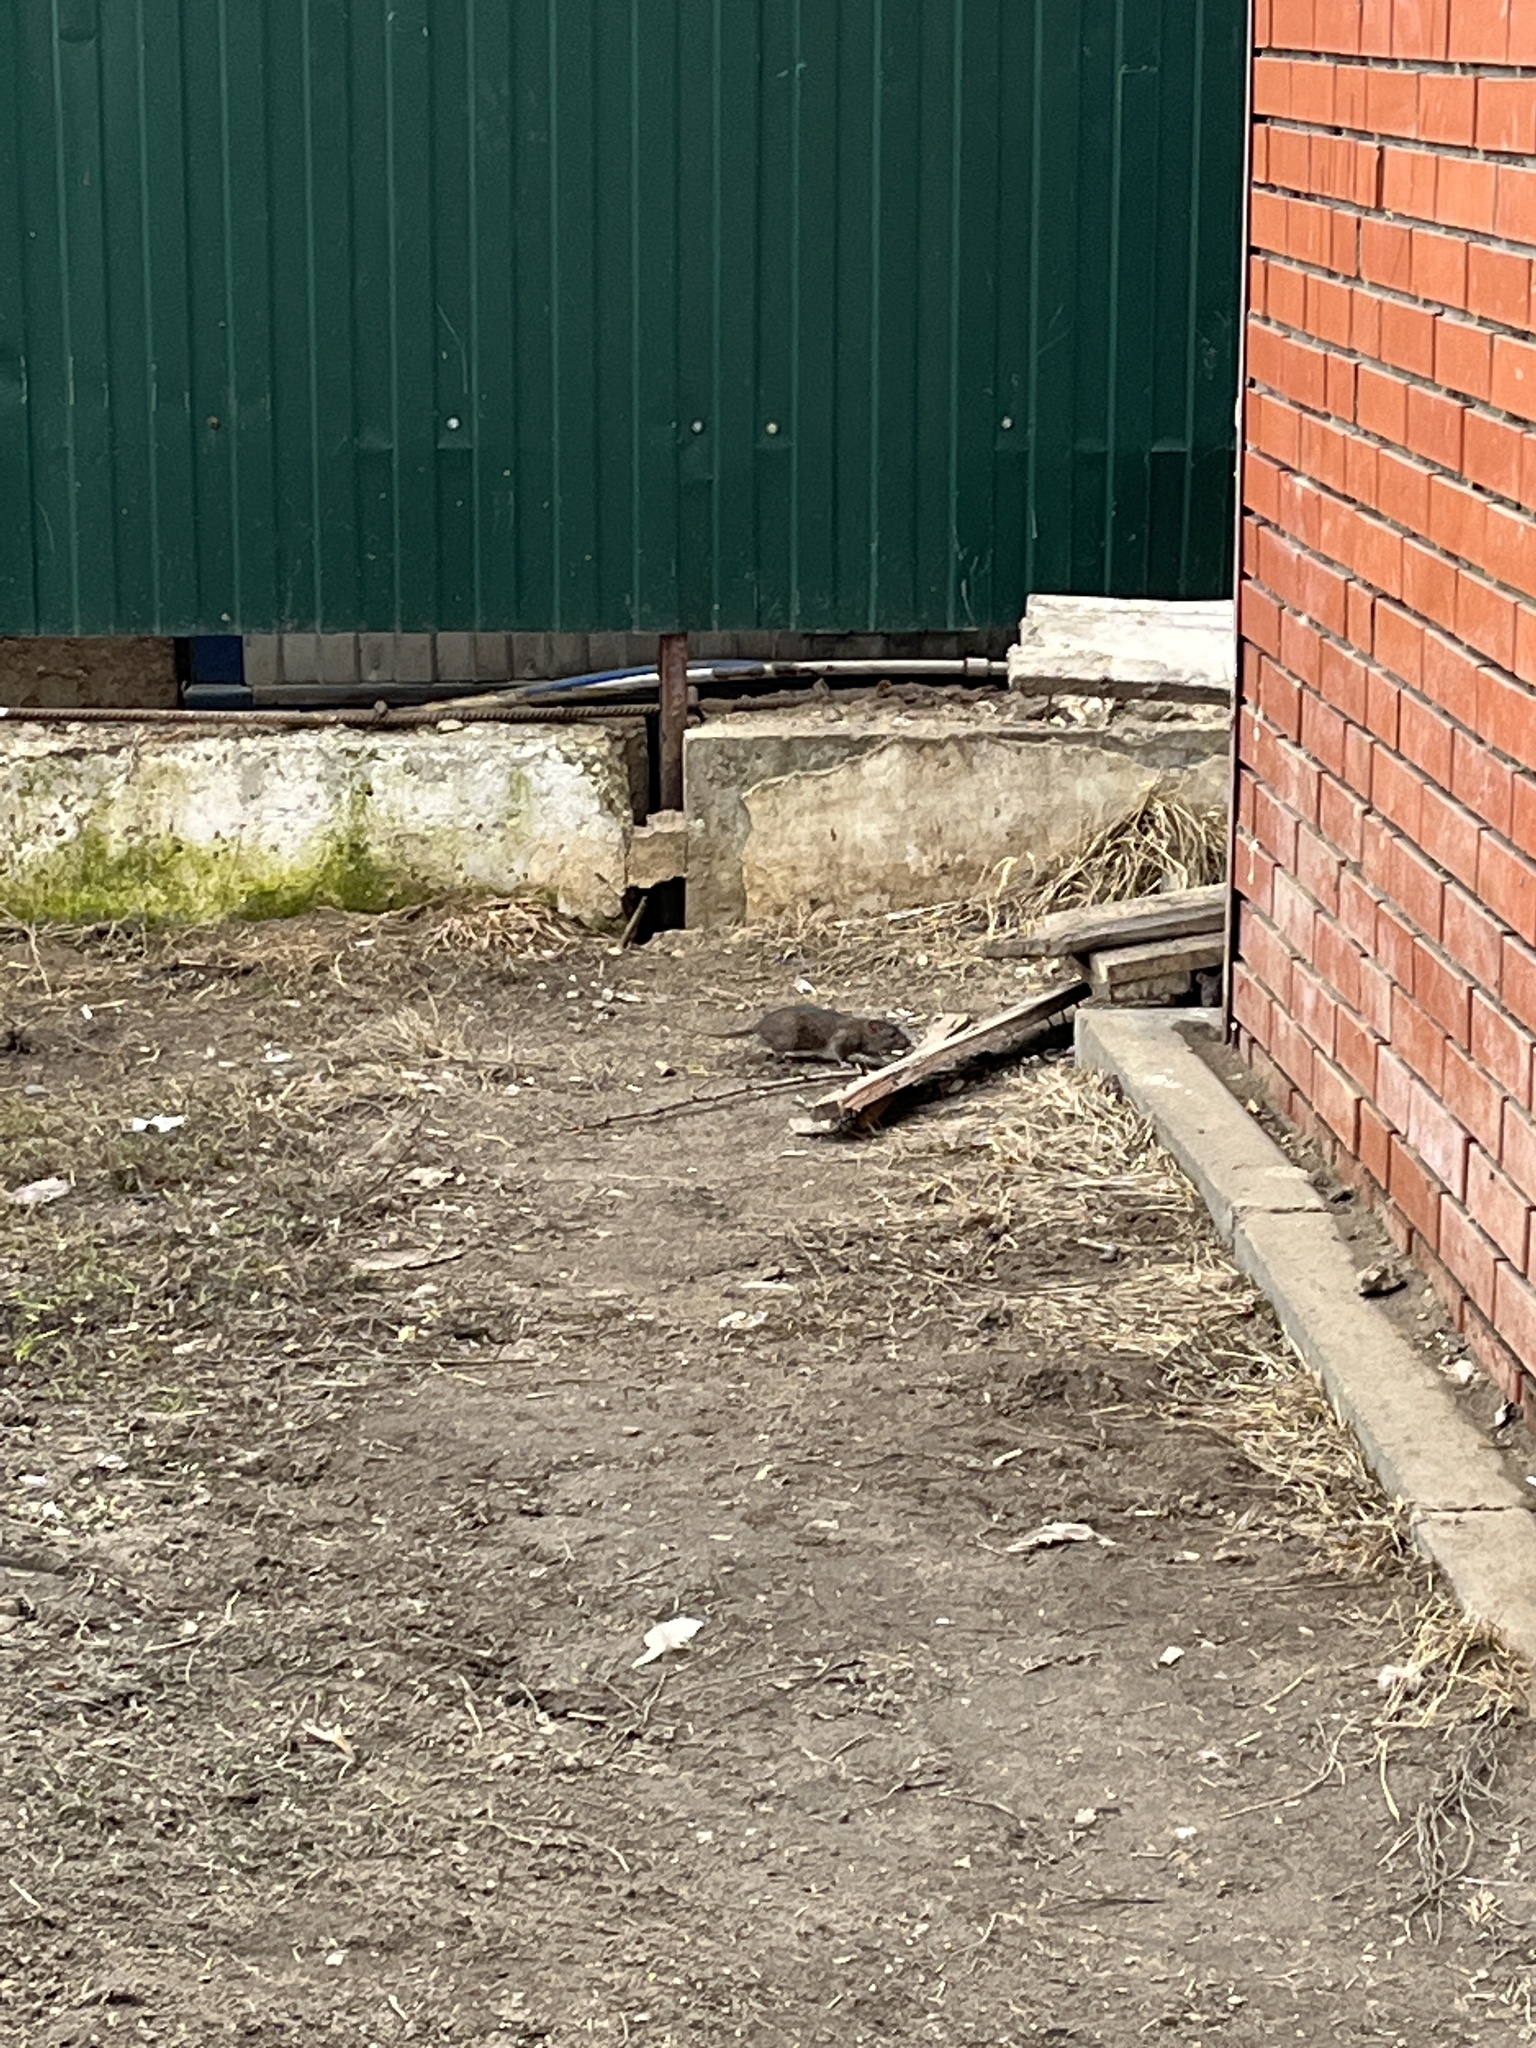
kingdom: Animalia
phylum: Chordata
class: Mammalia
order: Rodentia
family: Muridae
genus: Rattus
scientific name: Rattus norvegicus
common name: Brown rat
